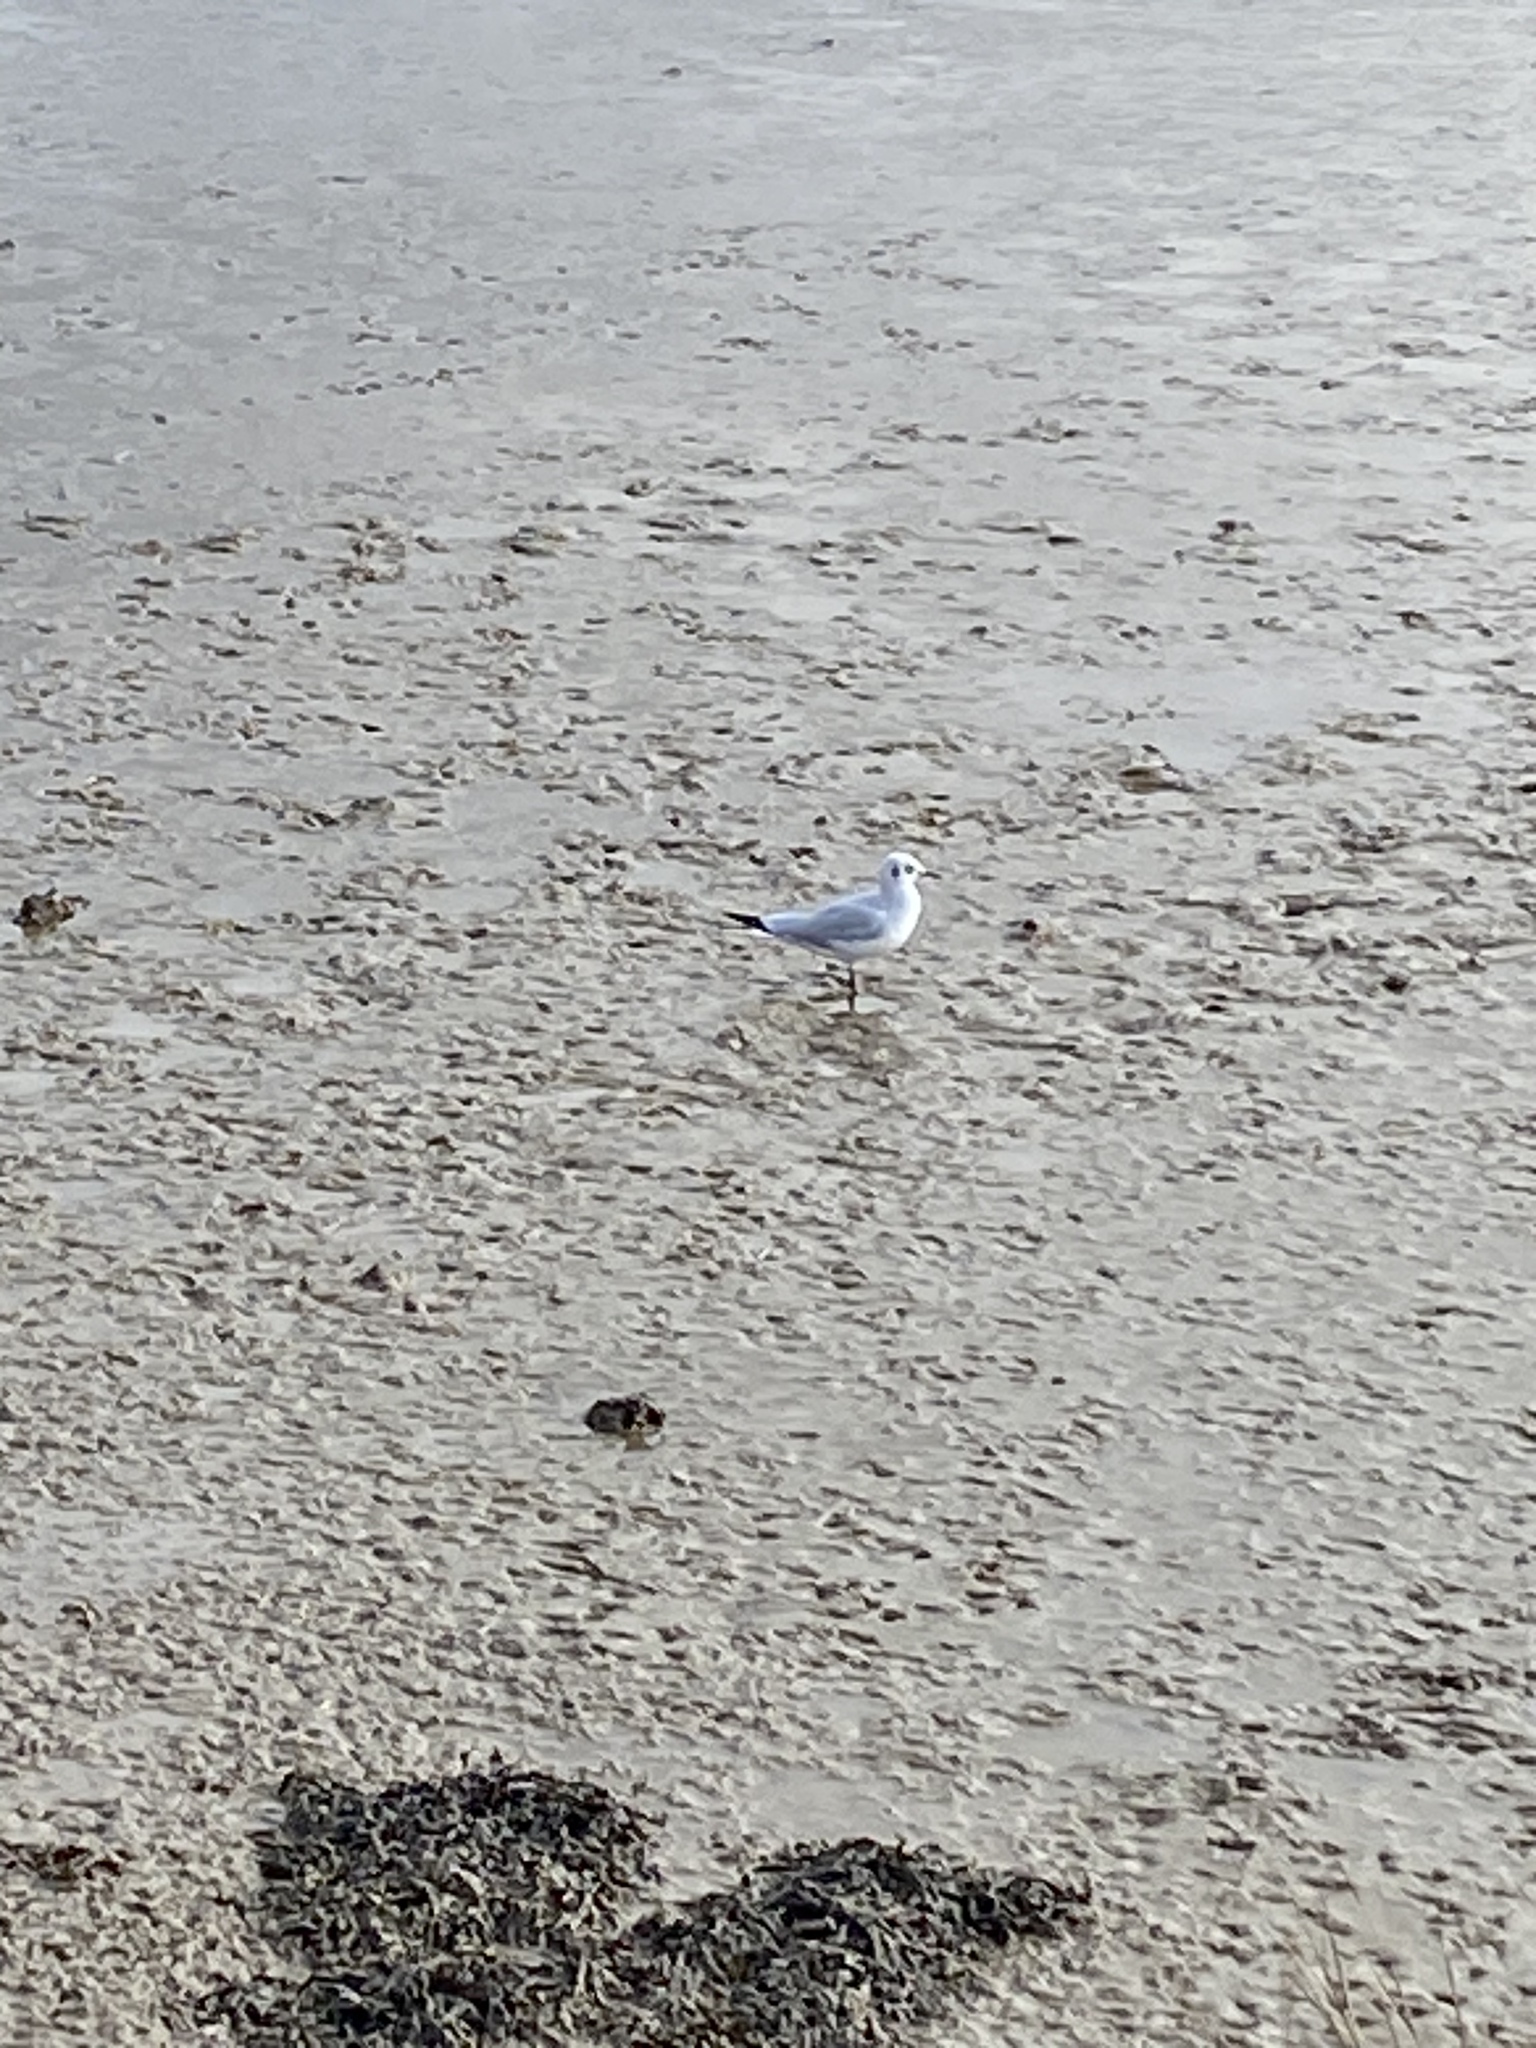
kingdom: Animalia
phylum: Chordata
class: Aves
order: Charadriiformes
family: Laridae
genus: Chroicocephalus
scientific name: Chroicocephalus ridibundus
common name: Black-headed gull
